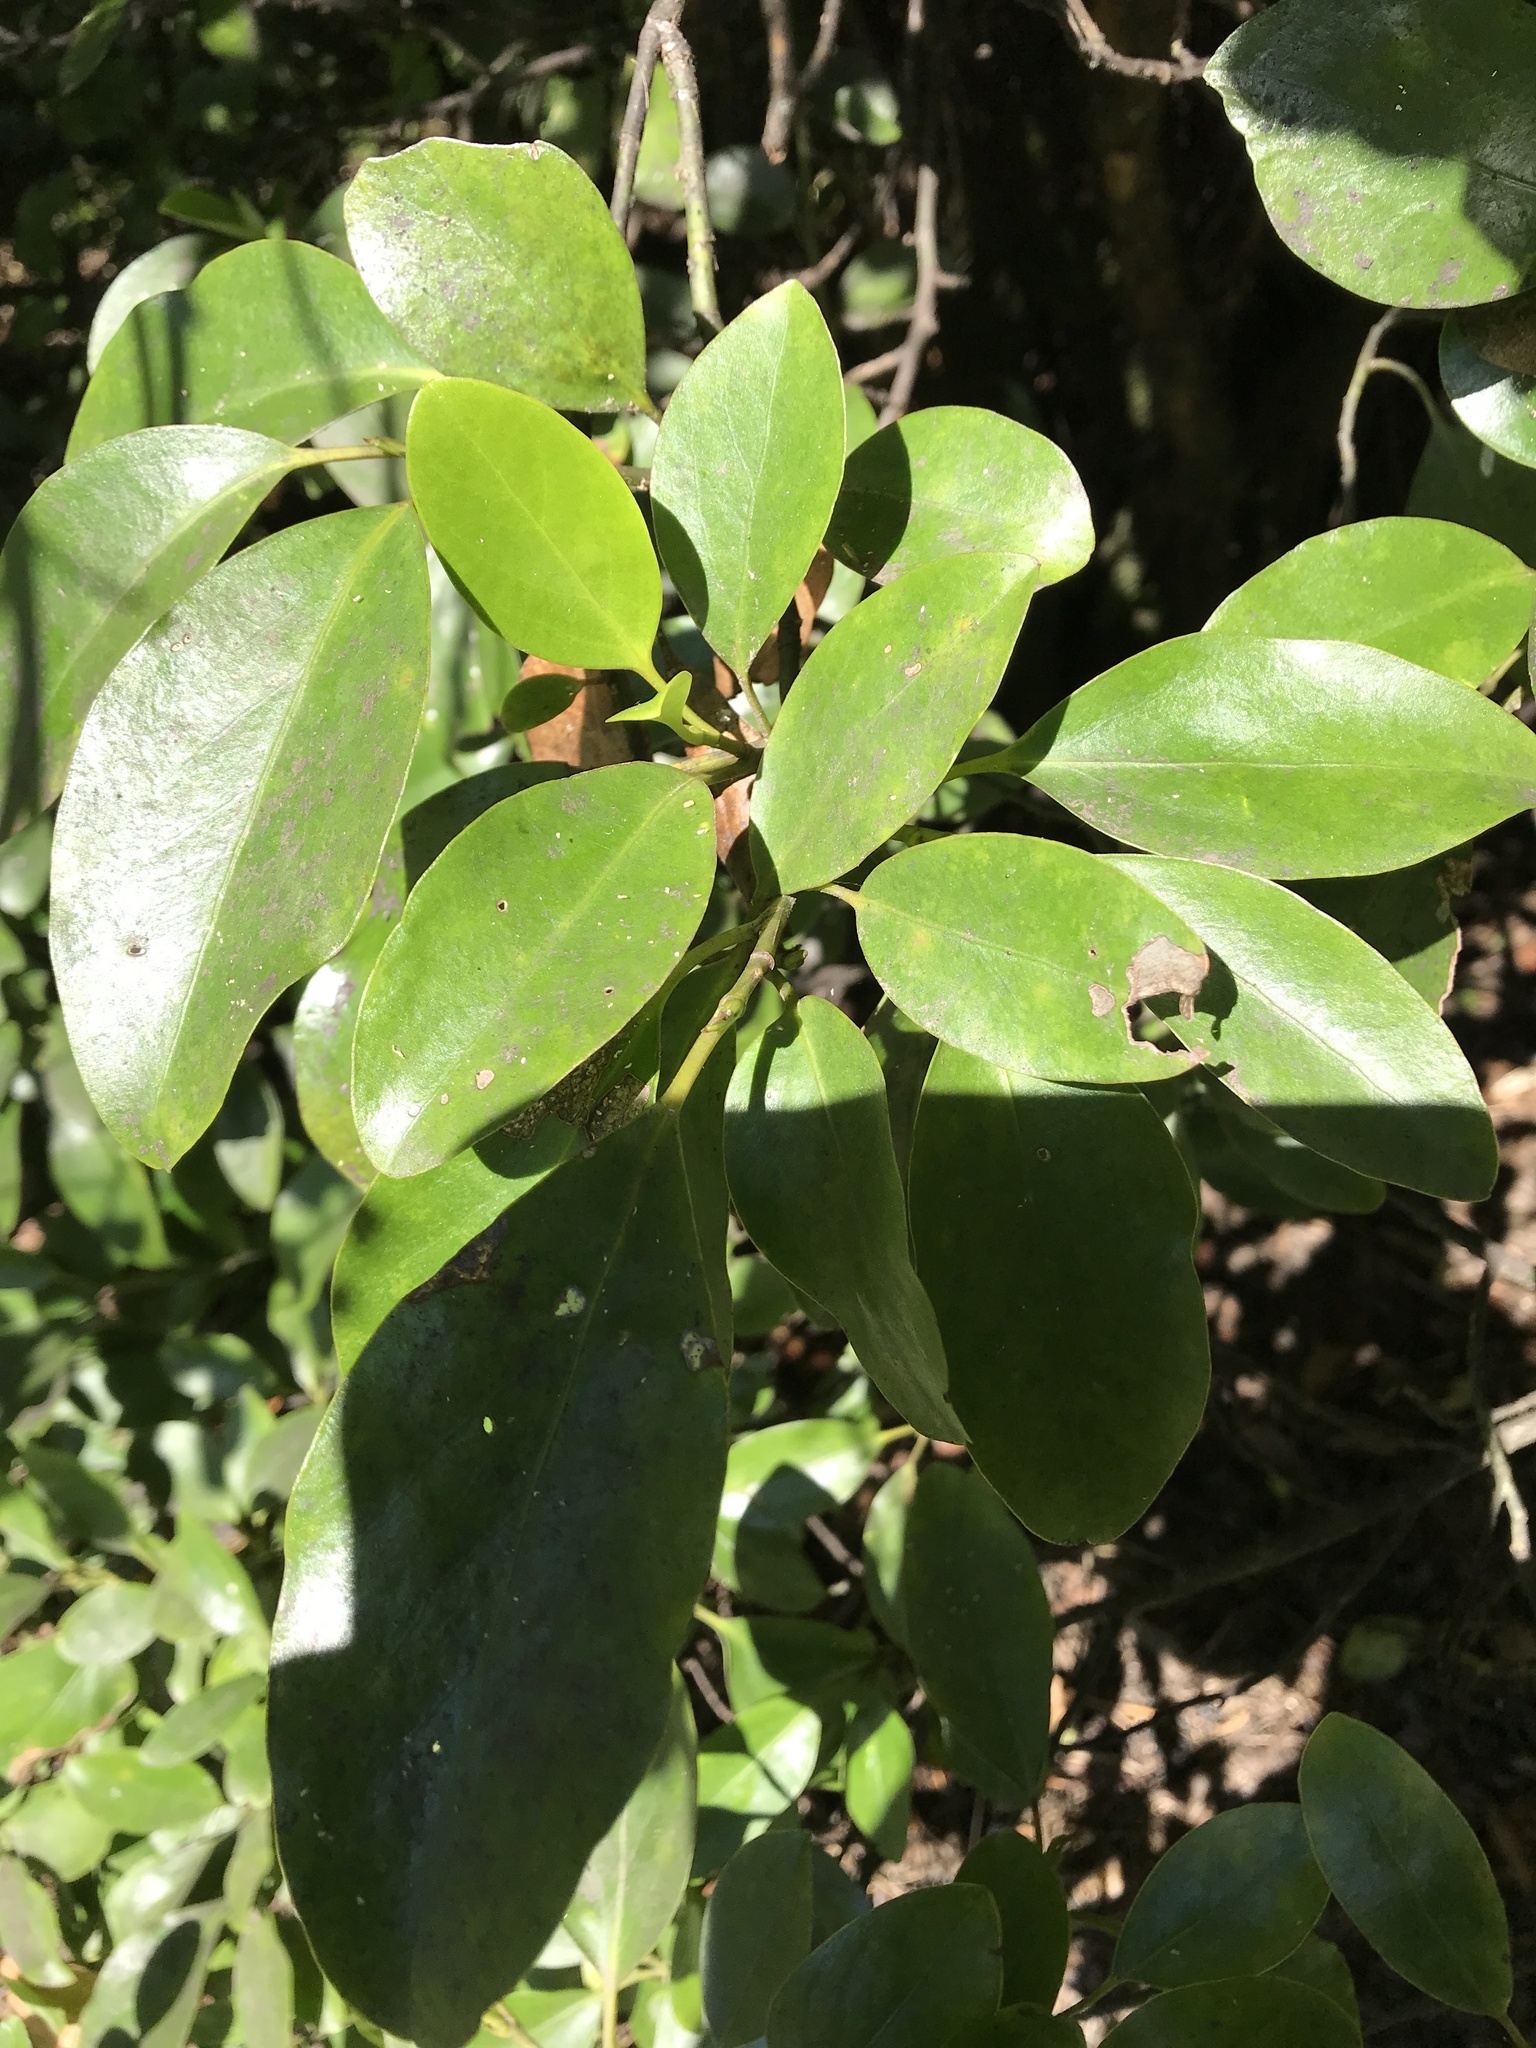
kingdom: Plantae
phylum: Tracheophyta
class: Magnoliopsida
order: Apiales
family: Griseliniaceae
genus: Griselinia
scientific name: Griselinia littoralis
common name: New zealand broadleaf
